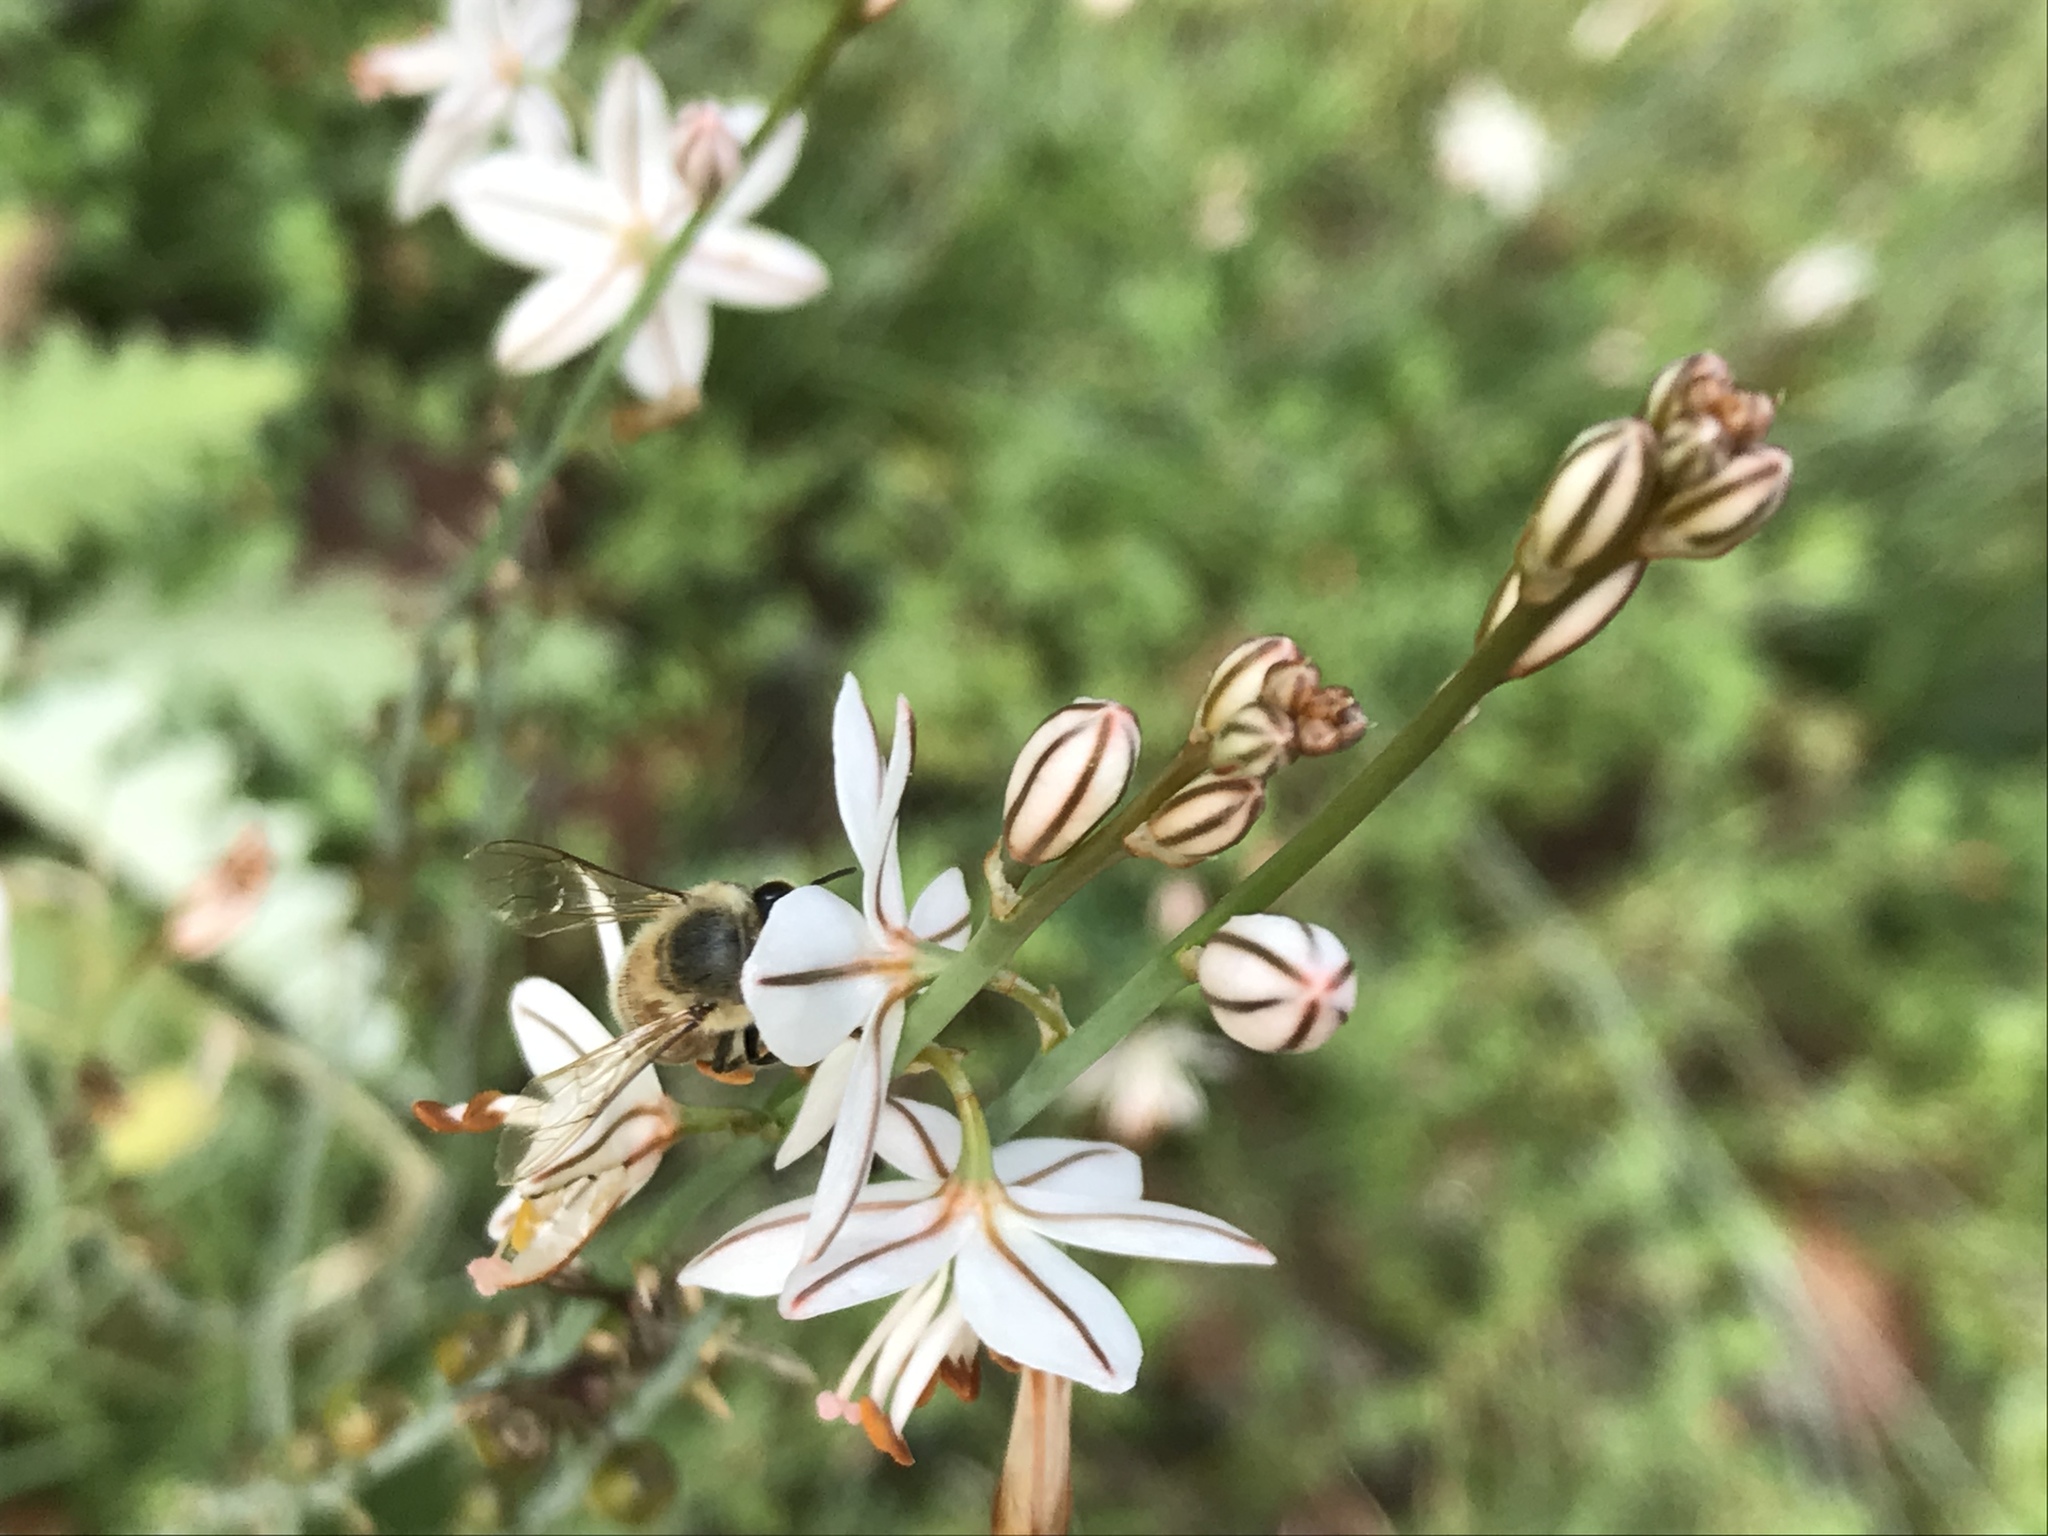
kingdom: Plantae
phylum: Tracheophyta
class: Liliopsida
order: Asparagales
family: Asphodelaceae
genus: Asphodelus
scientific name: Asphodelus fistulosus
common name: Onionweed
